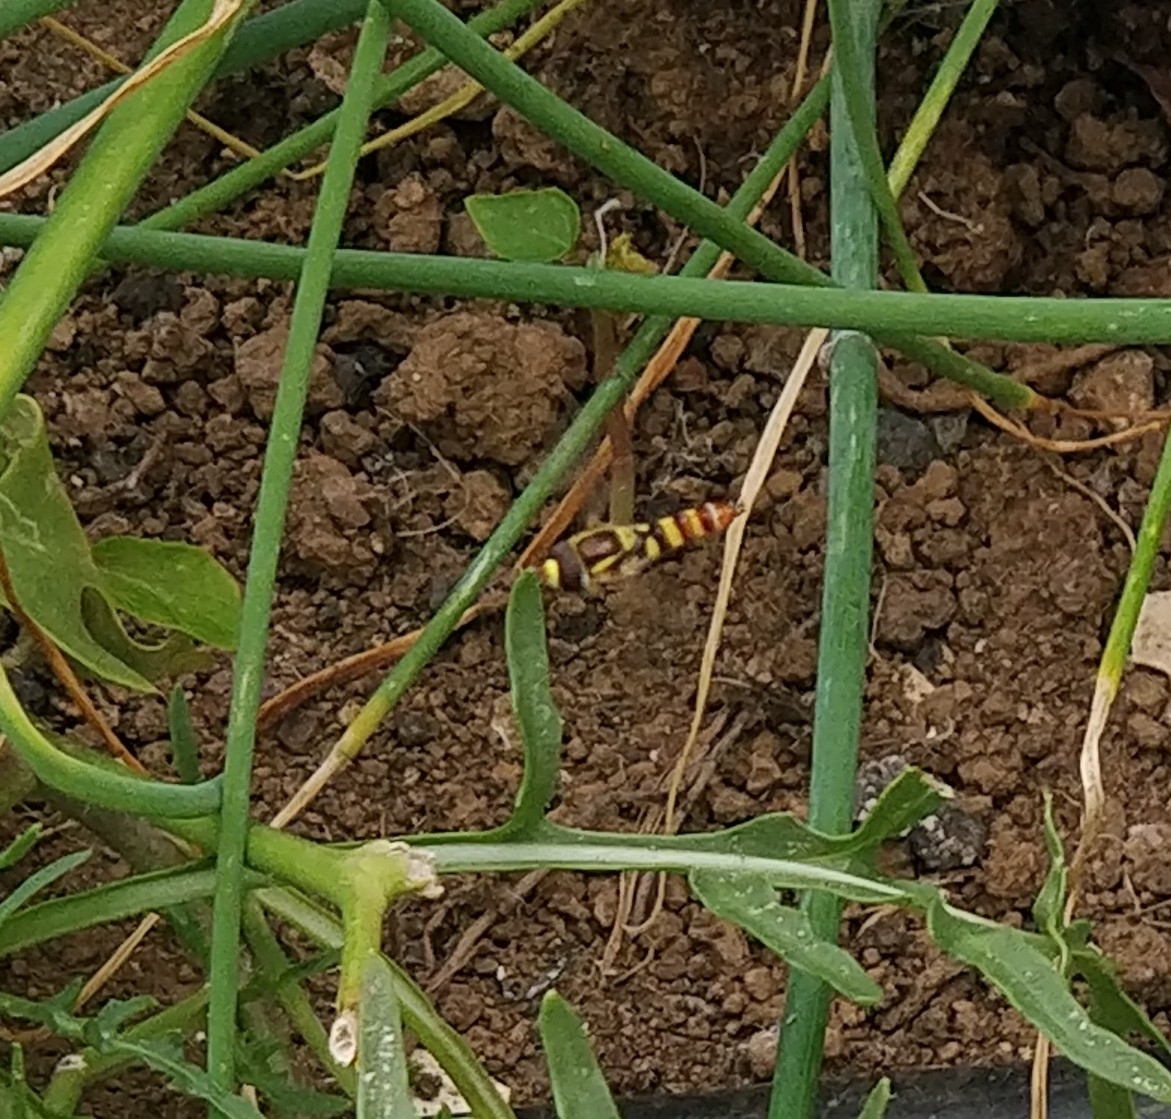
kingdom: Animalia
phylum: Arthropoda
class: Insecta
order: Diptera
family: Syrphidae
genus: Ischiodon
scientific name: Ischiodon aegyptius
